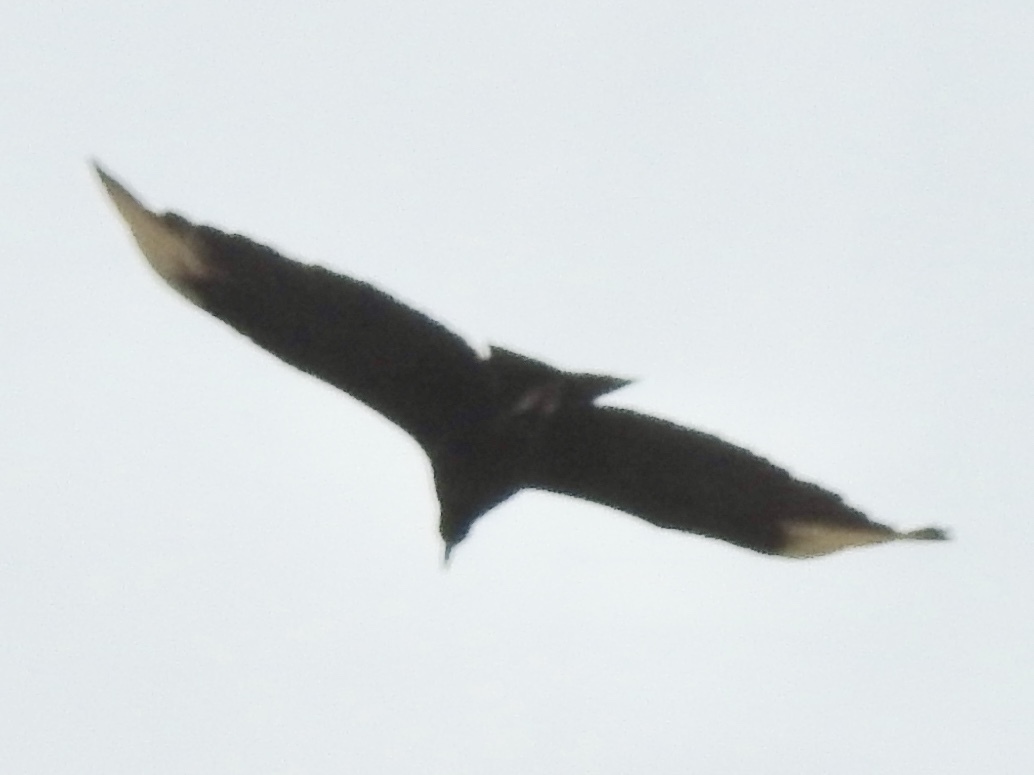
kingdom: Animalia
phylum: Chordata
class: Aves
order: Accipitriformes
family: Cathartidae
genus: Coragyps
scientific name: Coragyps atratus
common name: Black vulture
